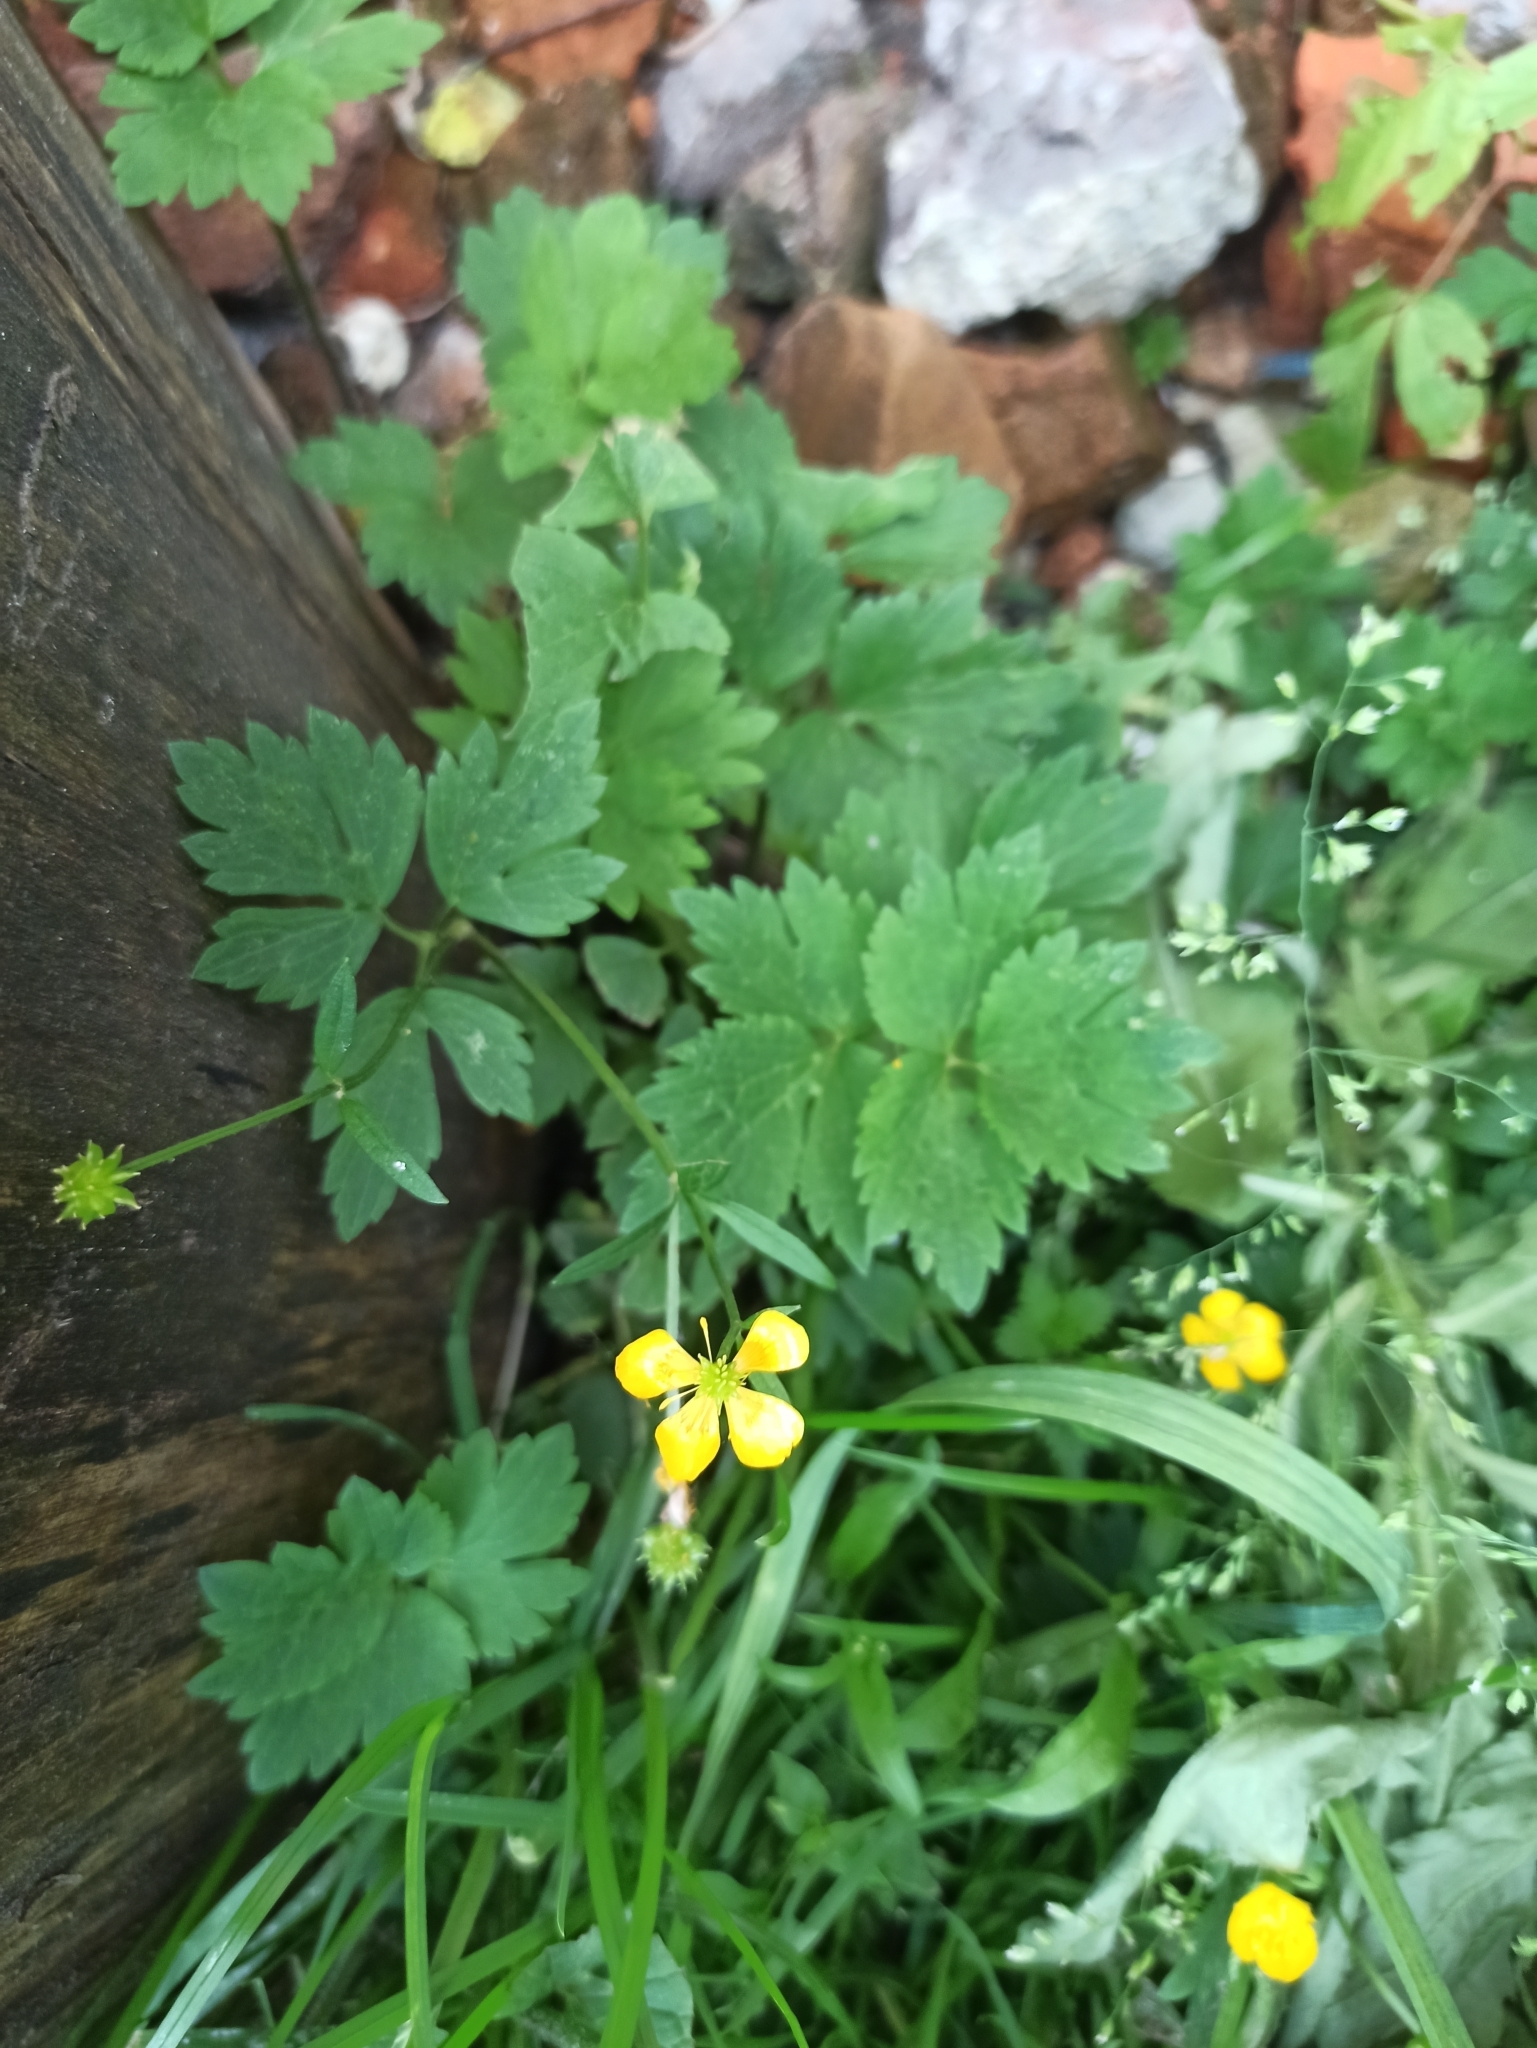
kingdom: Plantae
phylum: Tracheophyta
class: Magnoliopsida
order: Ranunculales
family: Ranunculaceae
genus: Ranunculus
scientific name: Ranunculus repens
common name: Creeping buttercup
